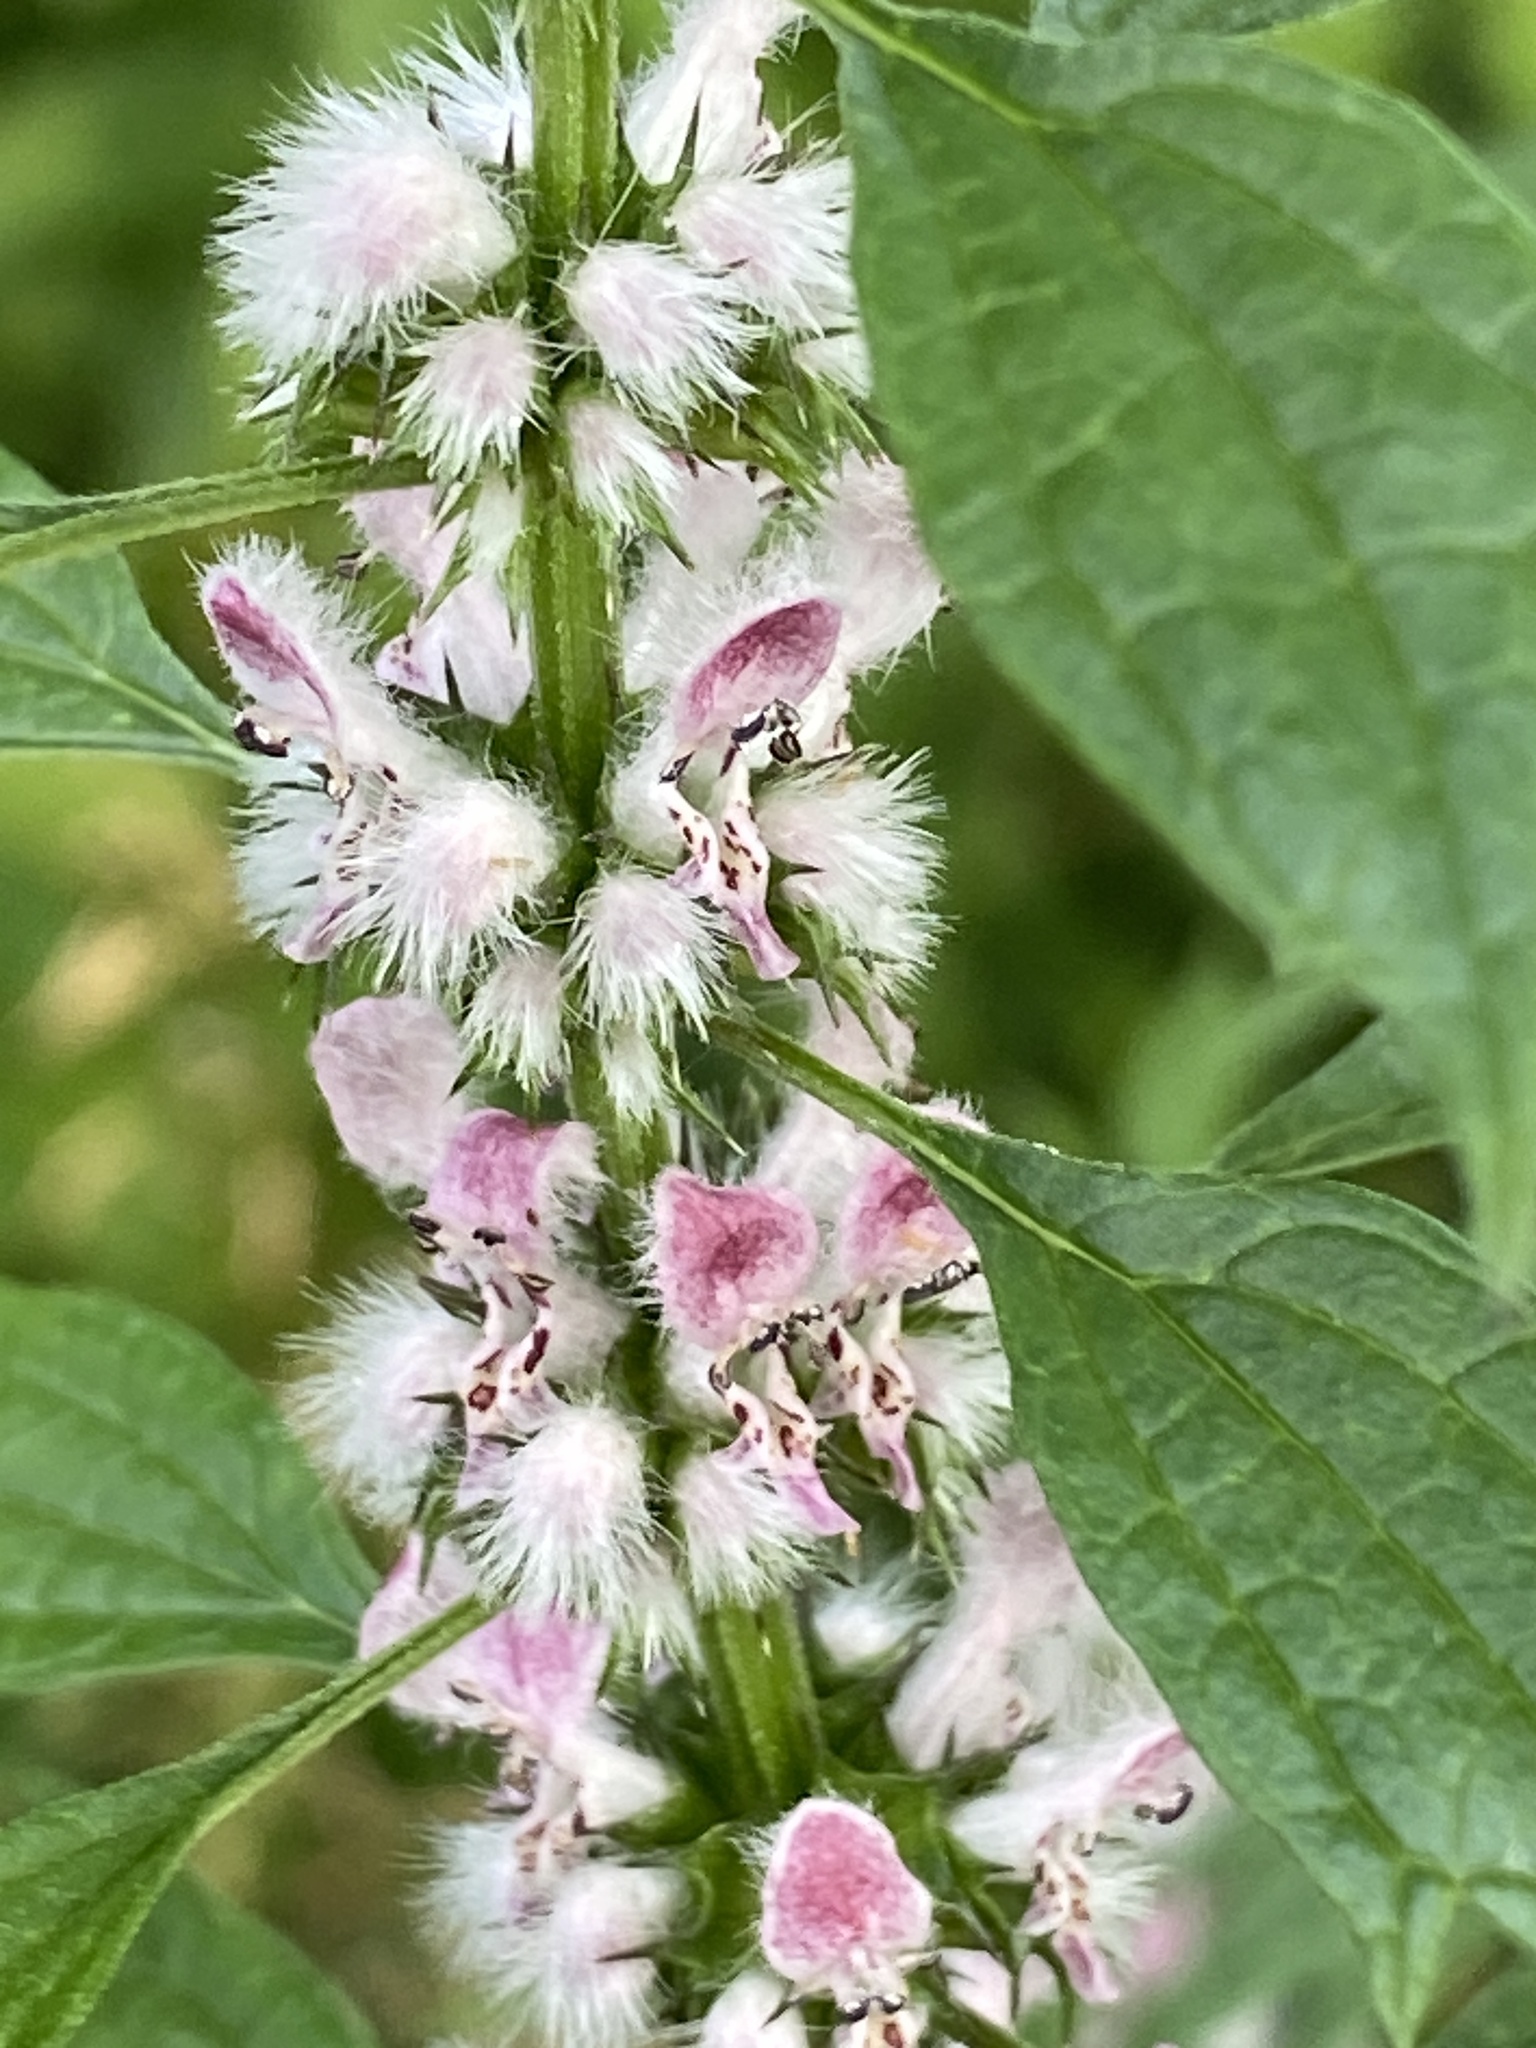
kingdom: Plantae
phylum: Tracheophyta
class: Magnoliopsida
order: Lamiales
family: Lamiaceae
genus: Leonurus
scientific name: Leonurus cardiaca
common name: Motherwort
